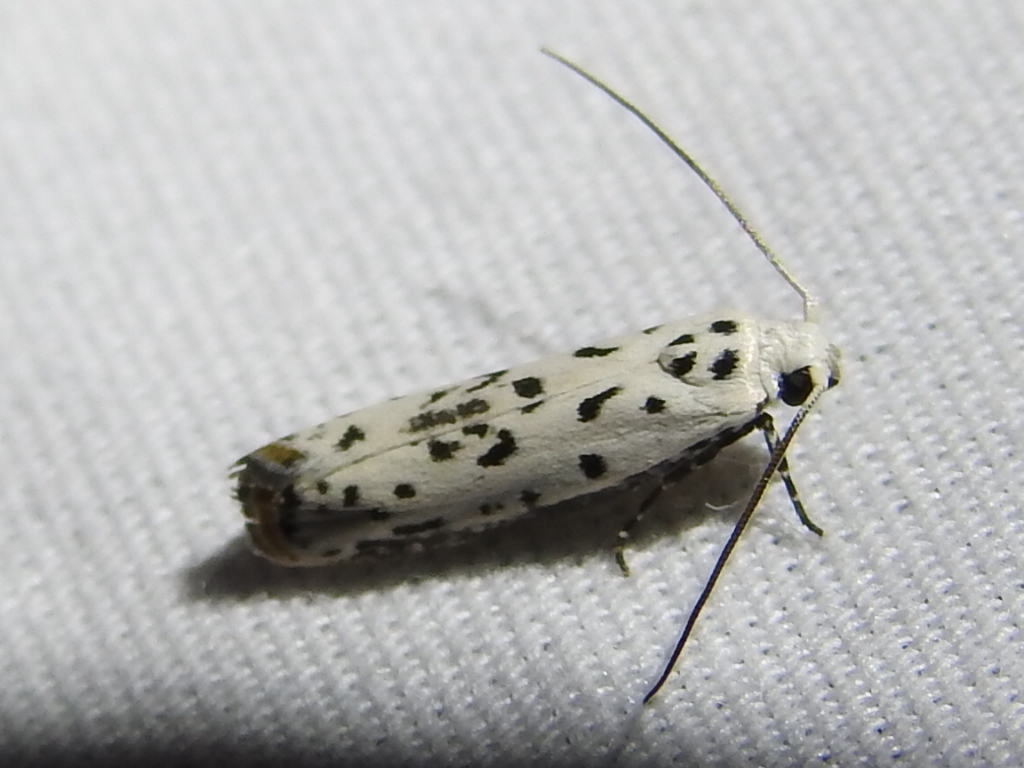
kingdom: Animalia
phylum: Arthropoda
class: Insecta
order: Lepidoptera
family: Ethmiidae
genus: Ethmia
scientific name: Ethmia bittenella
